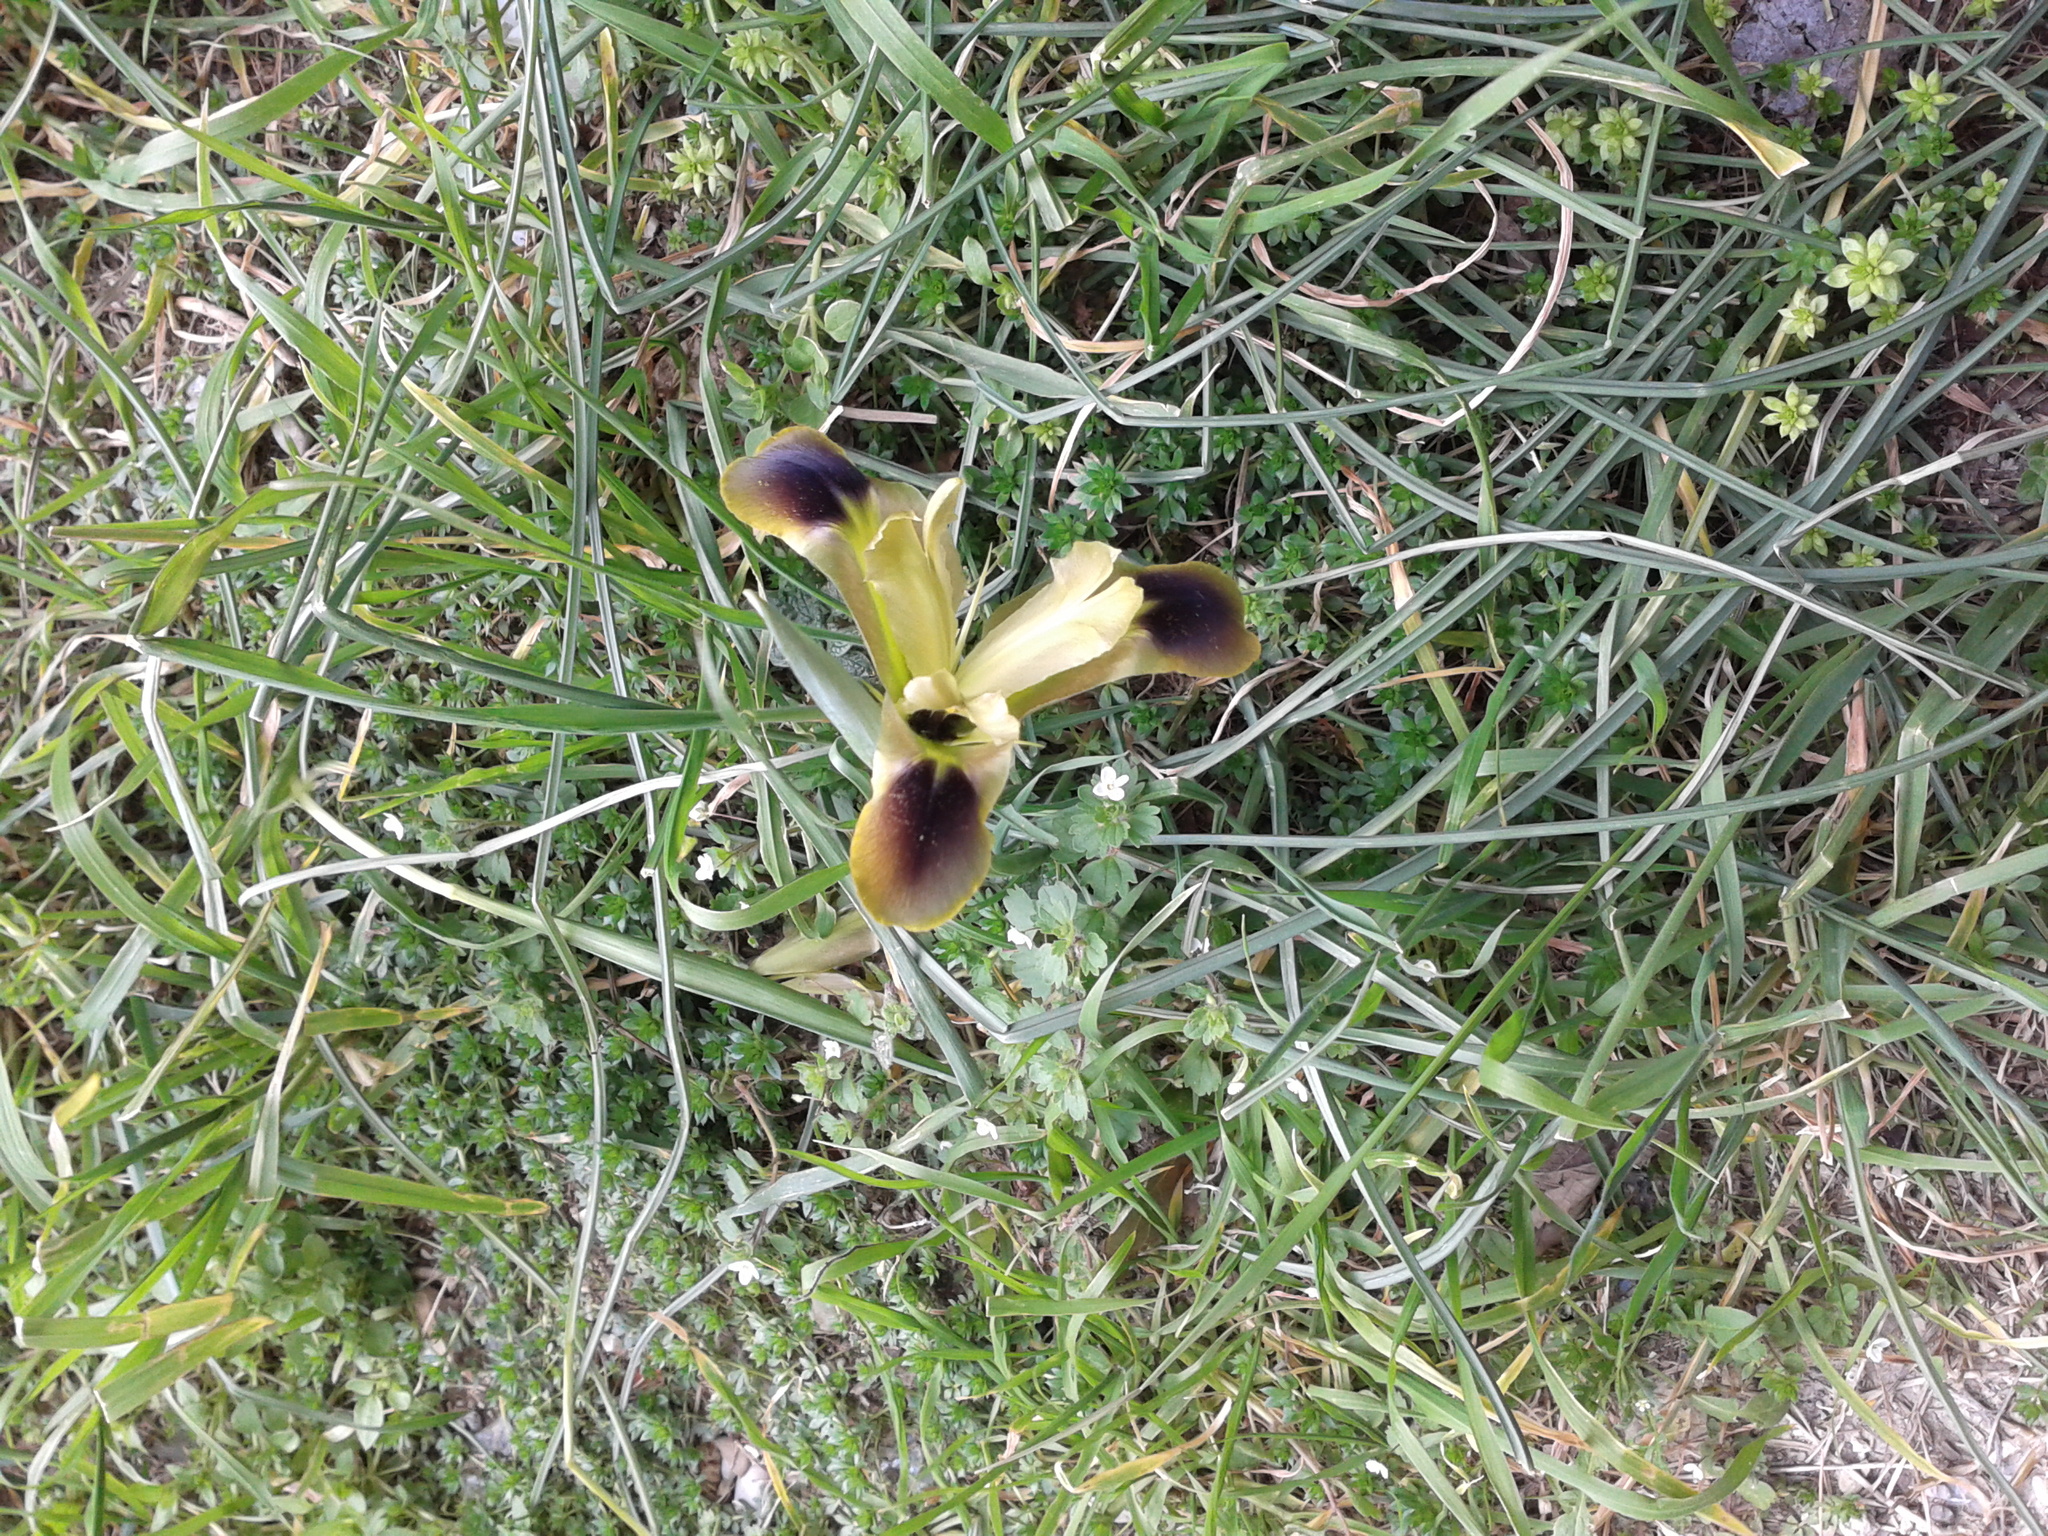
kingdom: Plantae
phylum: Tracheophyta
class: Liliopsida
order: Asparagales
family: Iridaceae
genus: Iris
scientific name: Iris tuberosa
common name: Snake's-head iris
